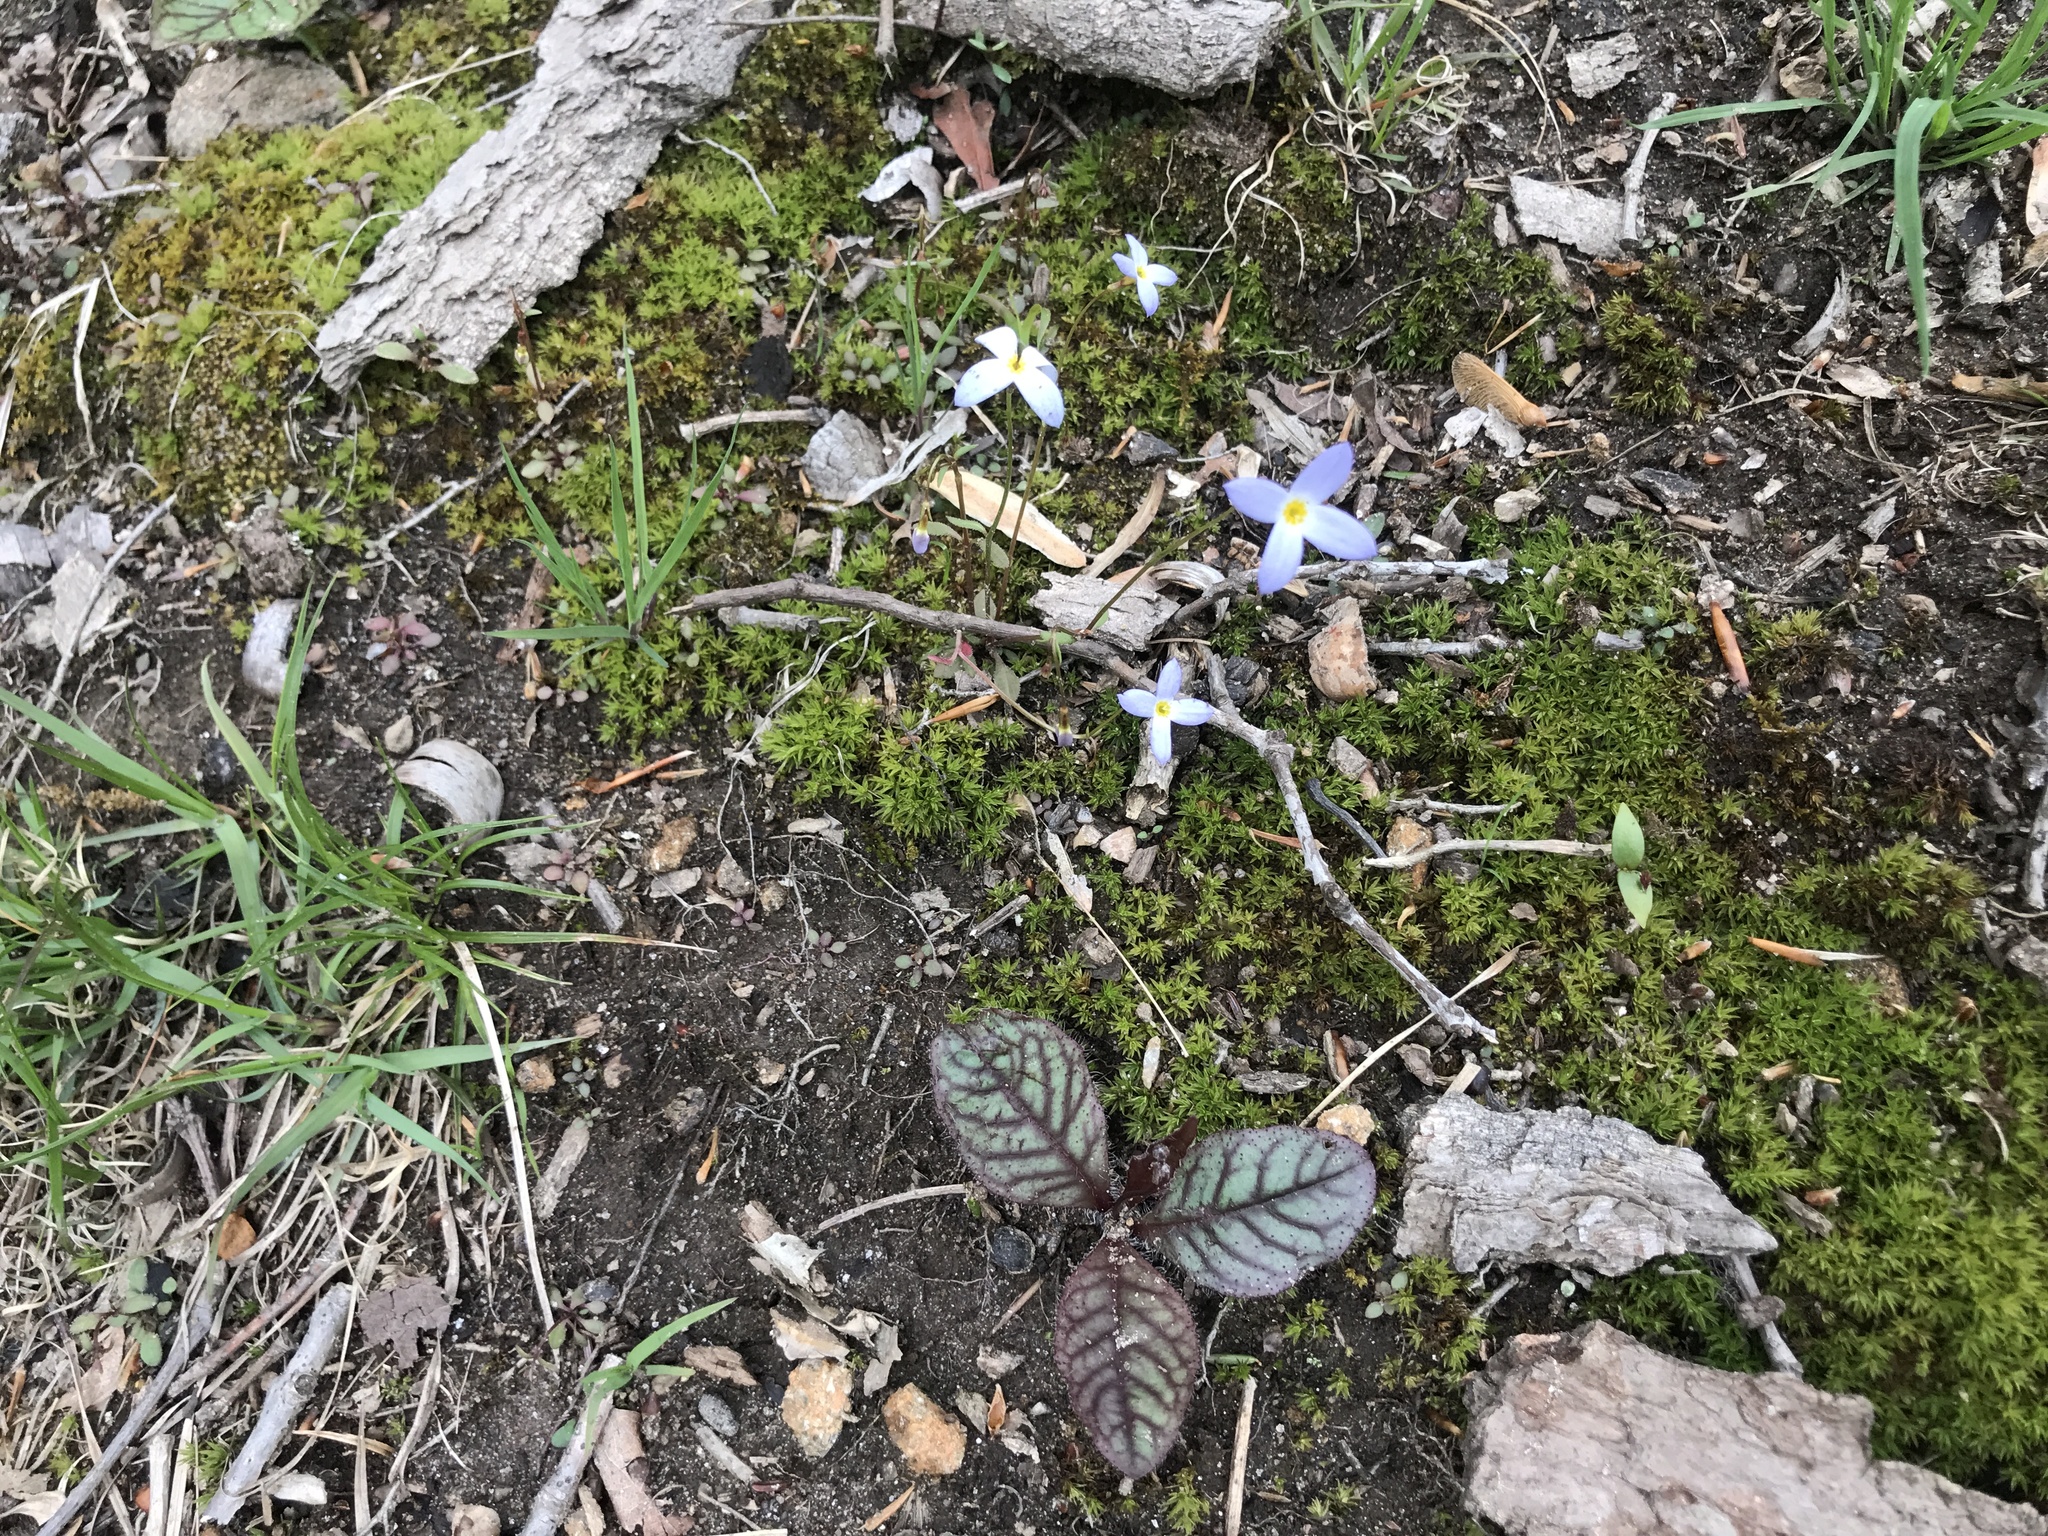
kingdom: Plantae
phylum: Tracheophyta
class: Magnoliopsida
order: Asterales
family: Asteraceae
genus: Hieracium
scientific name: Hieracium venosum
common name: Rattlesnake hawkweed
